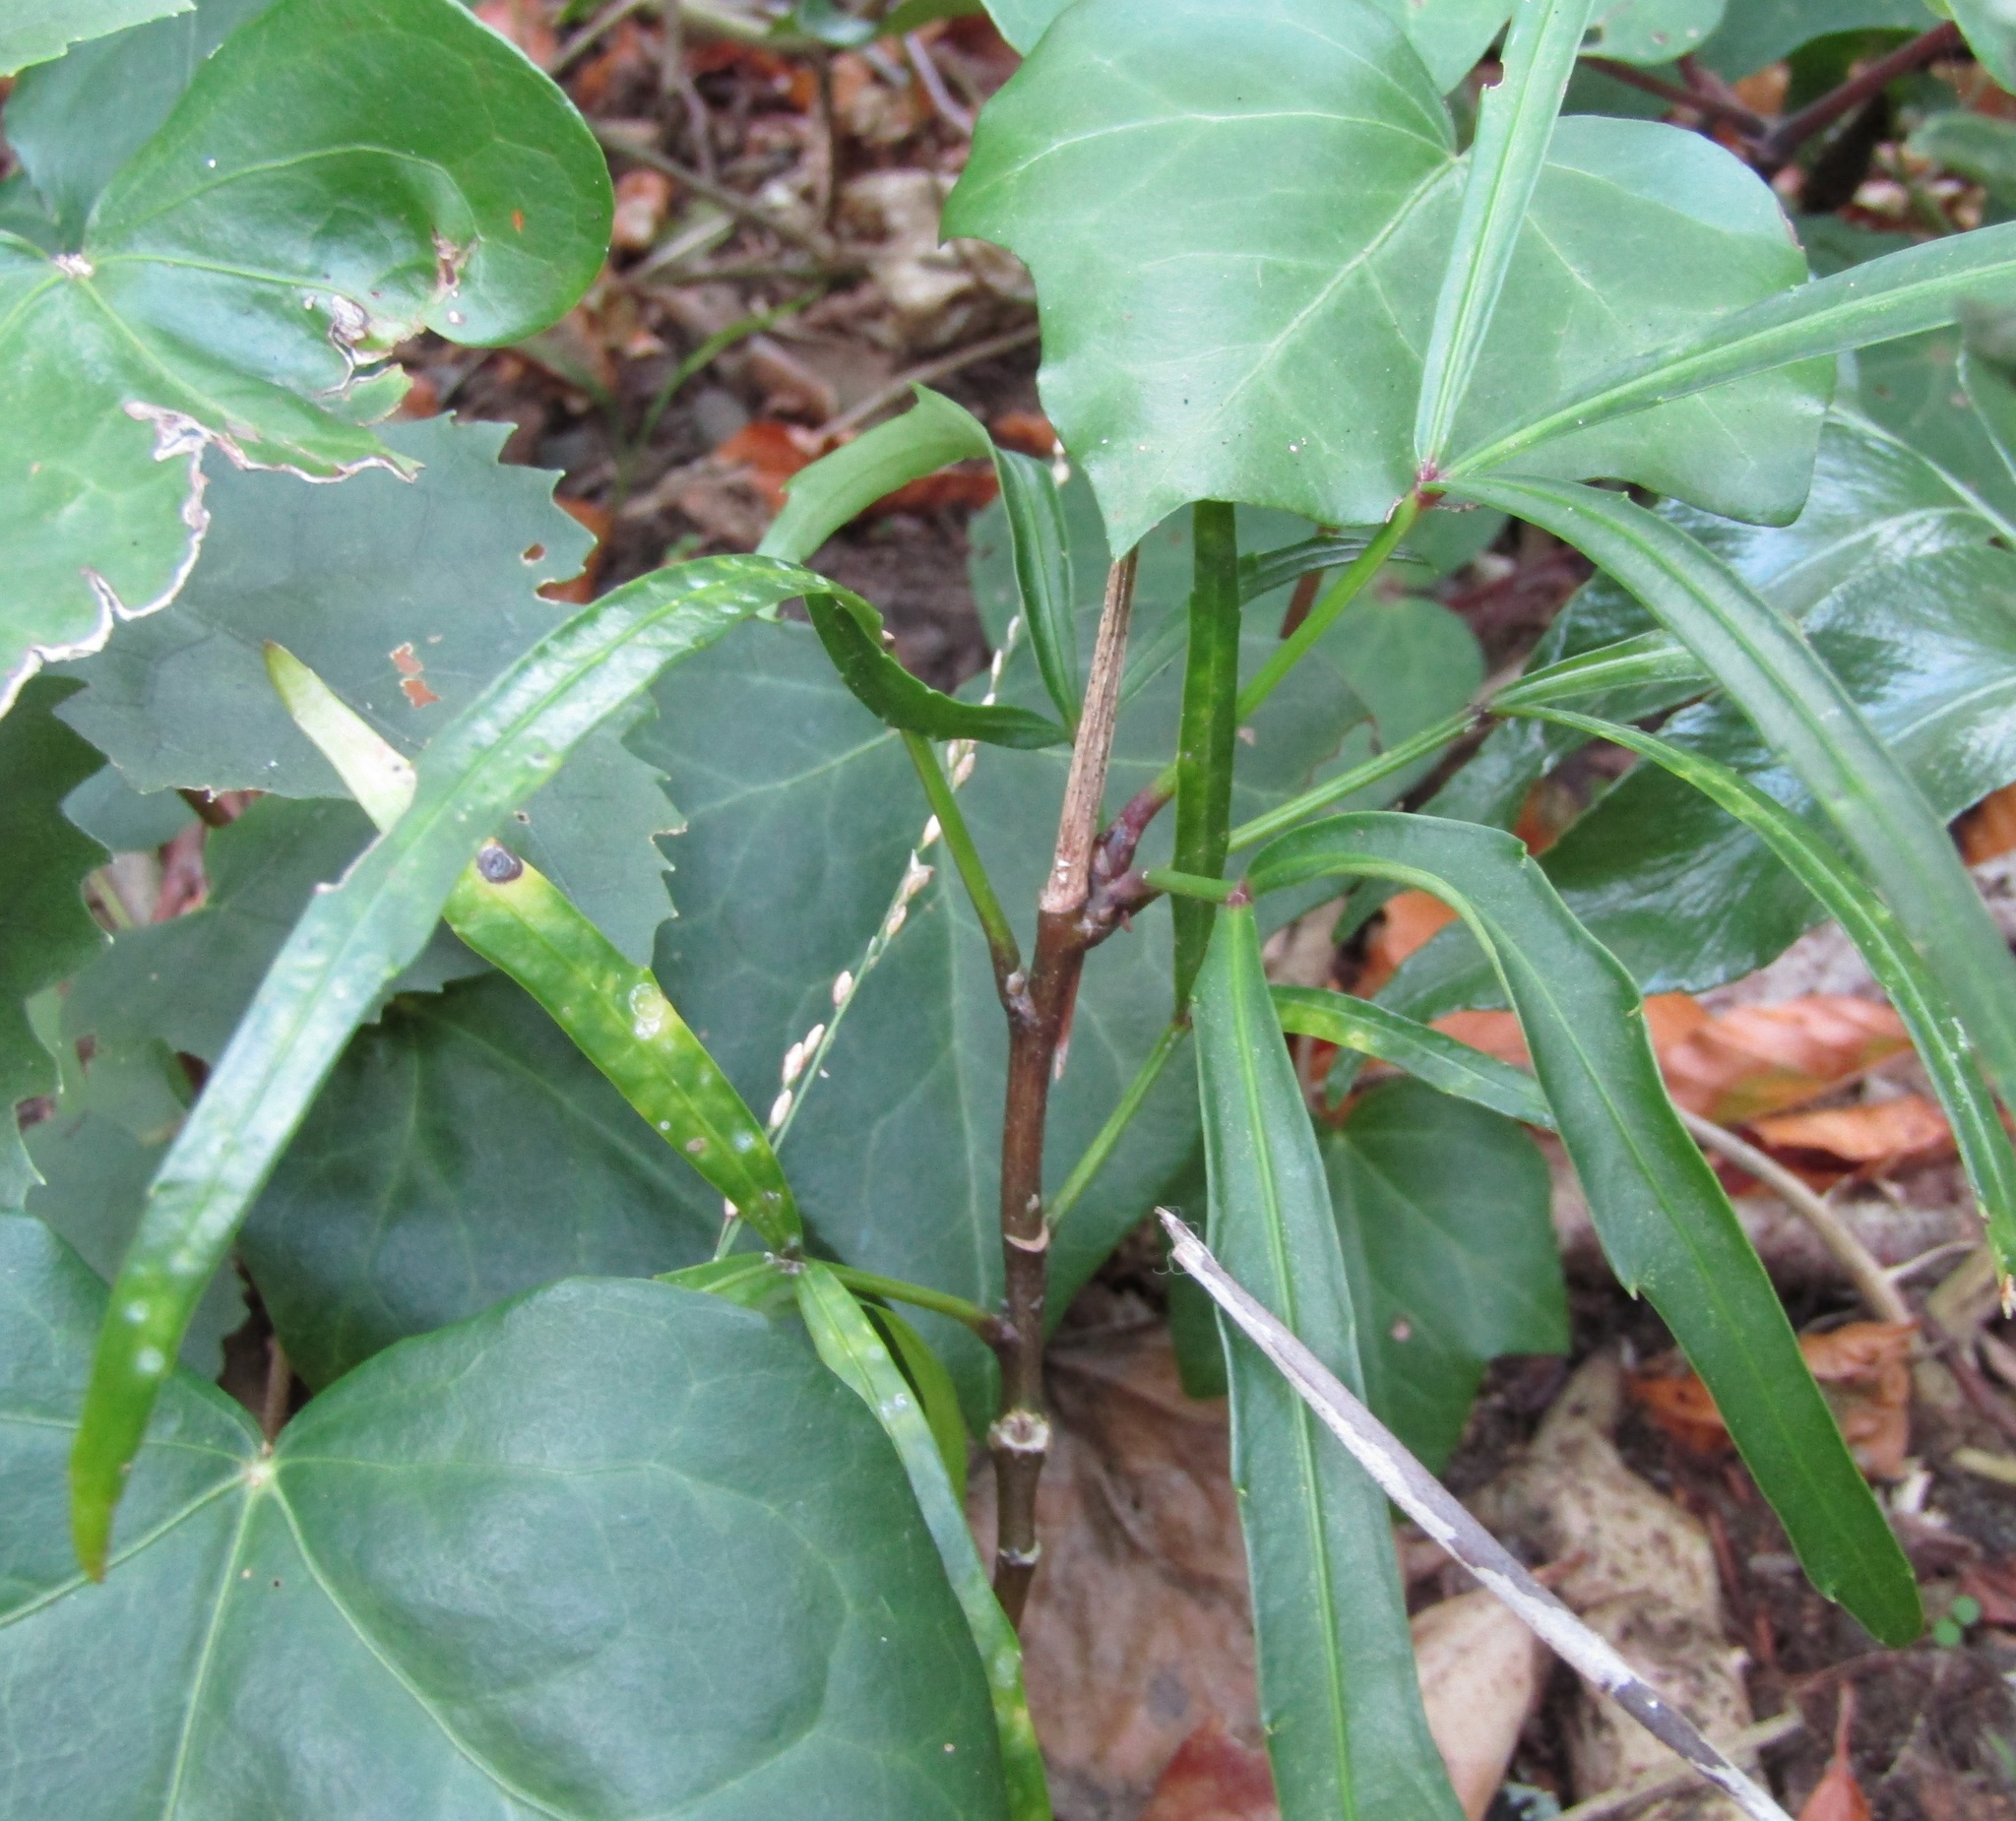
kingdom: Plantae
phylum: Tracheophyta
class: Magnoliopsida
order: Apiales
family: Araliaceae
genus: Pseudopanax
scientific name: Pseudopanax
